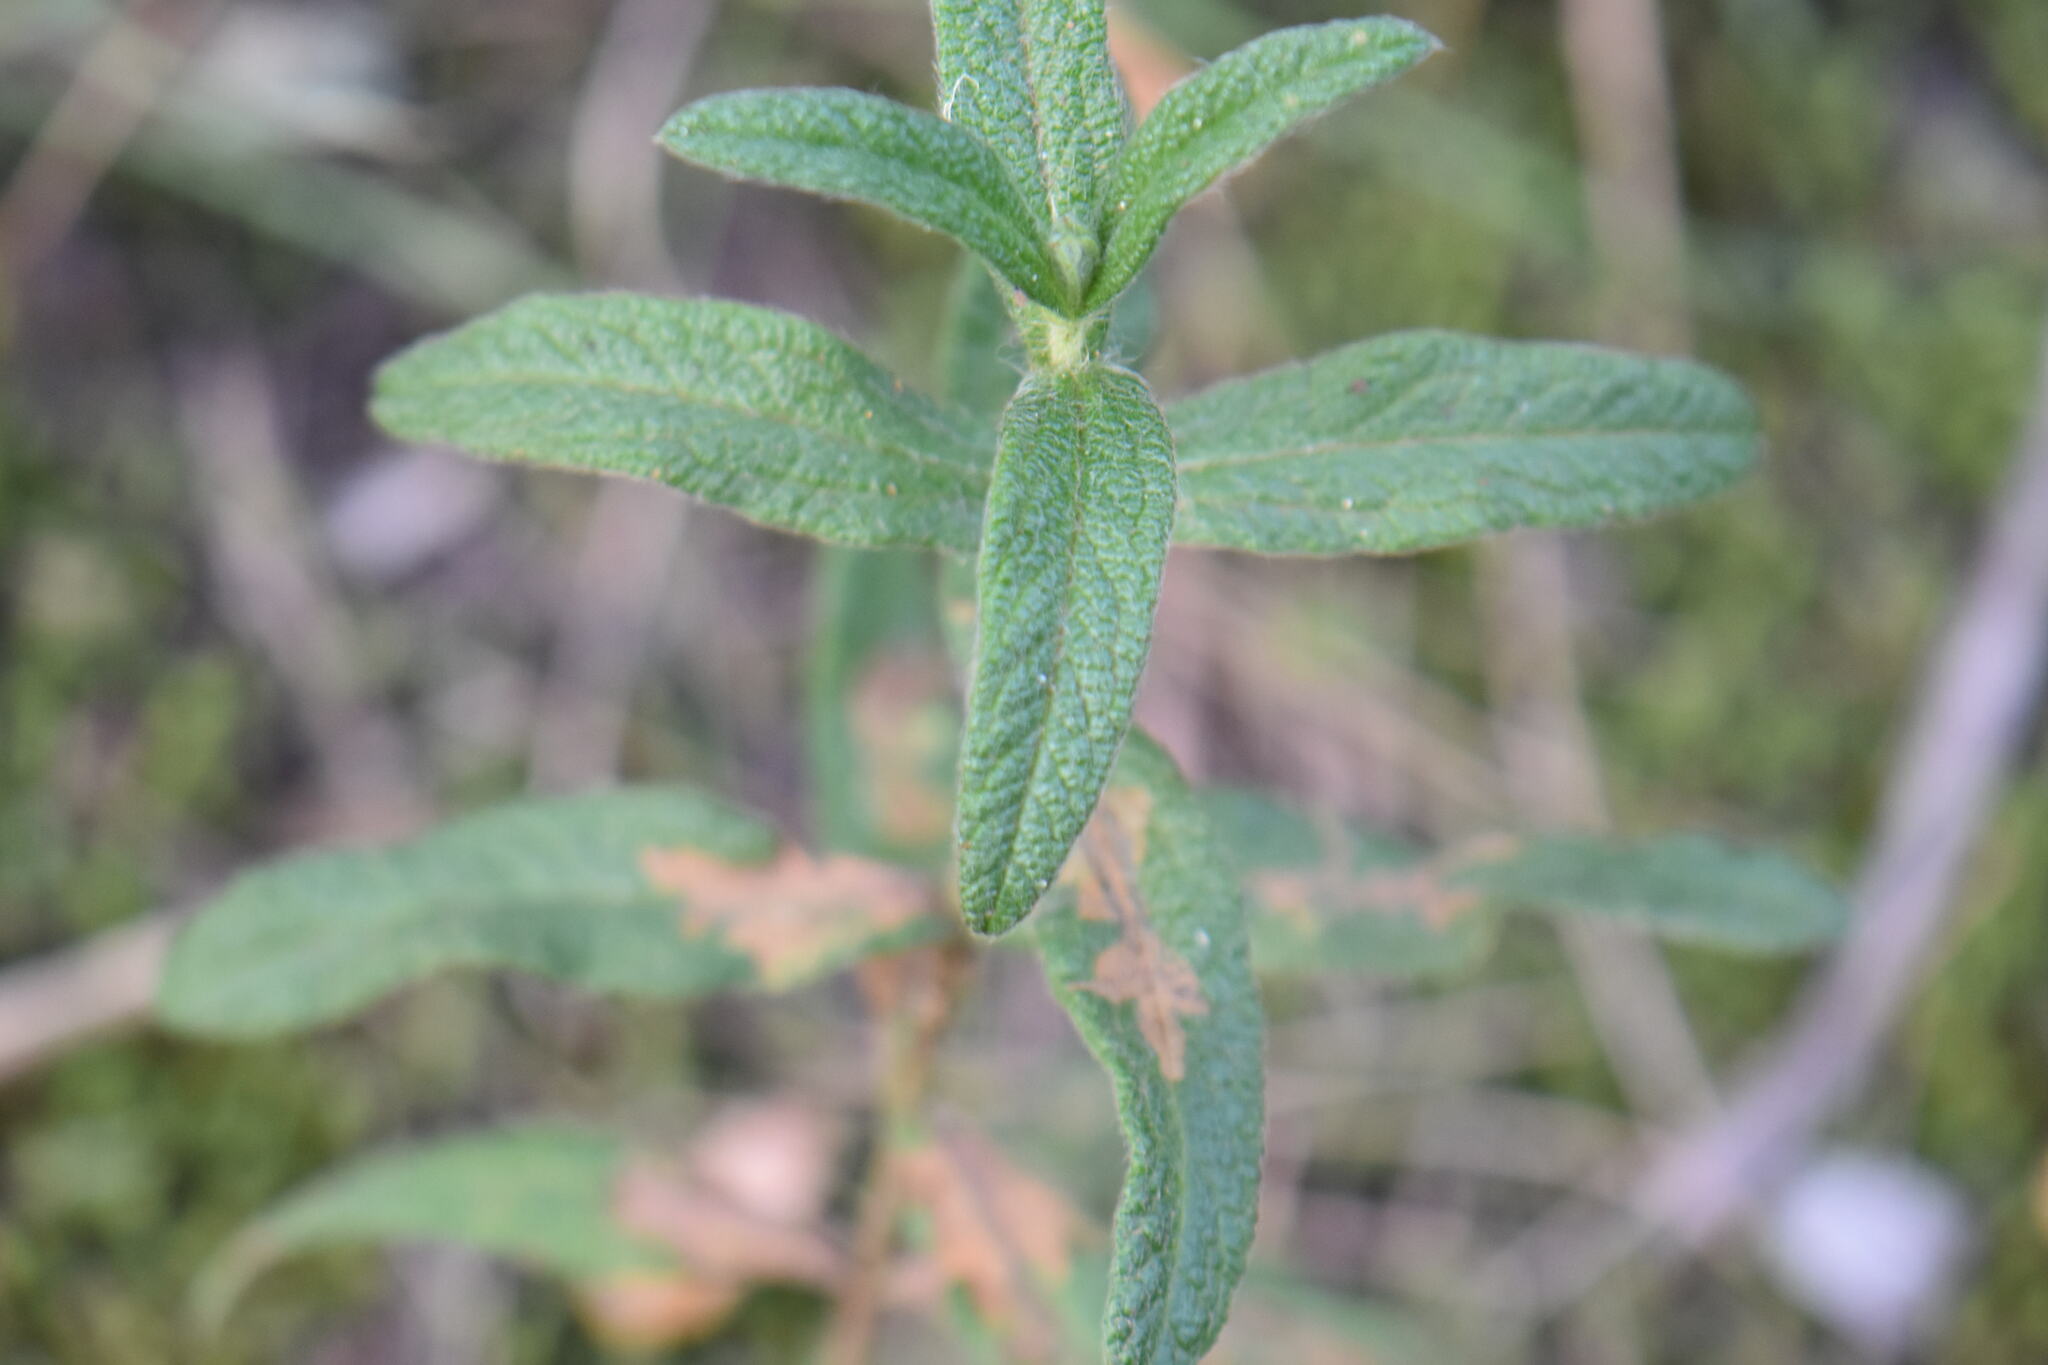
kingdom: Plantae
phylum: Tracheophyta
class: Magnoliopsida
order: Malvales
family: Cistaceae
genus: Cistus
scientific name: Cistus monspeliensis
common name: Montpelier cistus
